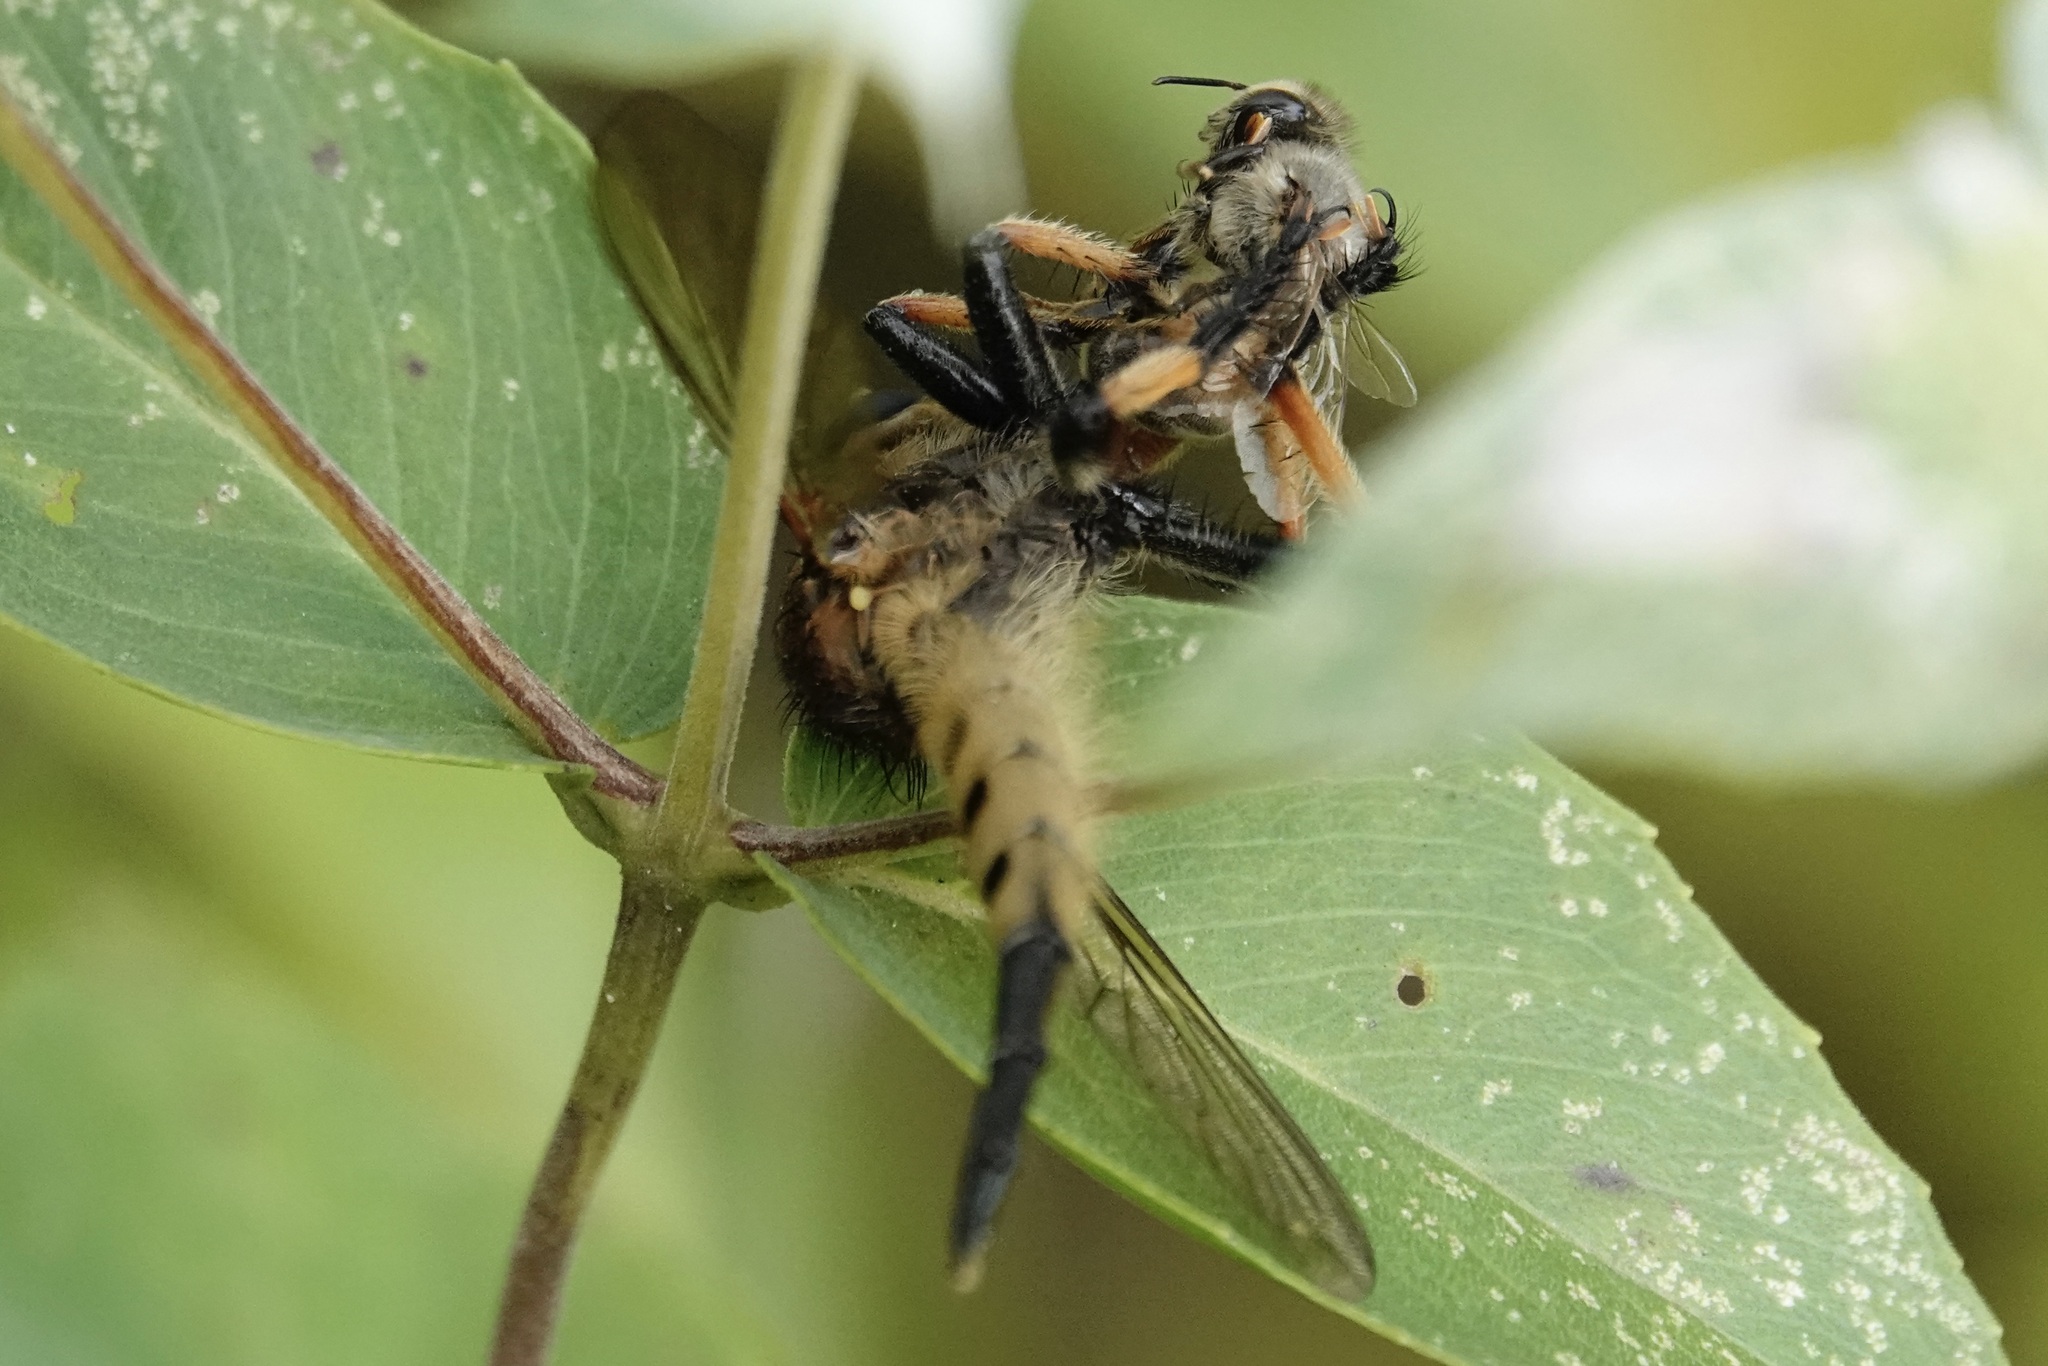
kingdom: Animalia
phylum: Arthropoda
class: Insecta
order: Diptera
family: Asilidae
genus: Promachus
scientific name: Promachus rufipes
